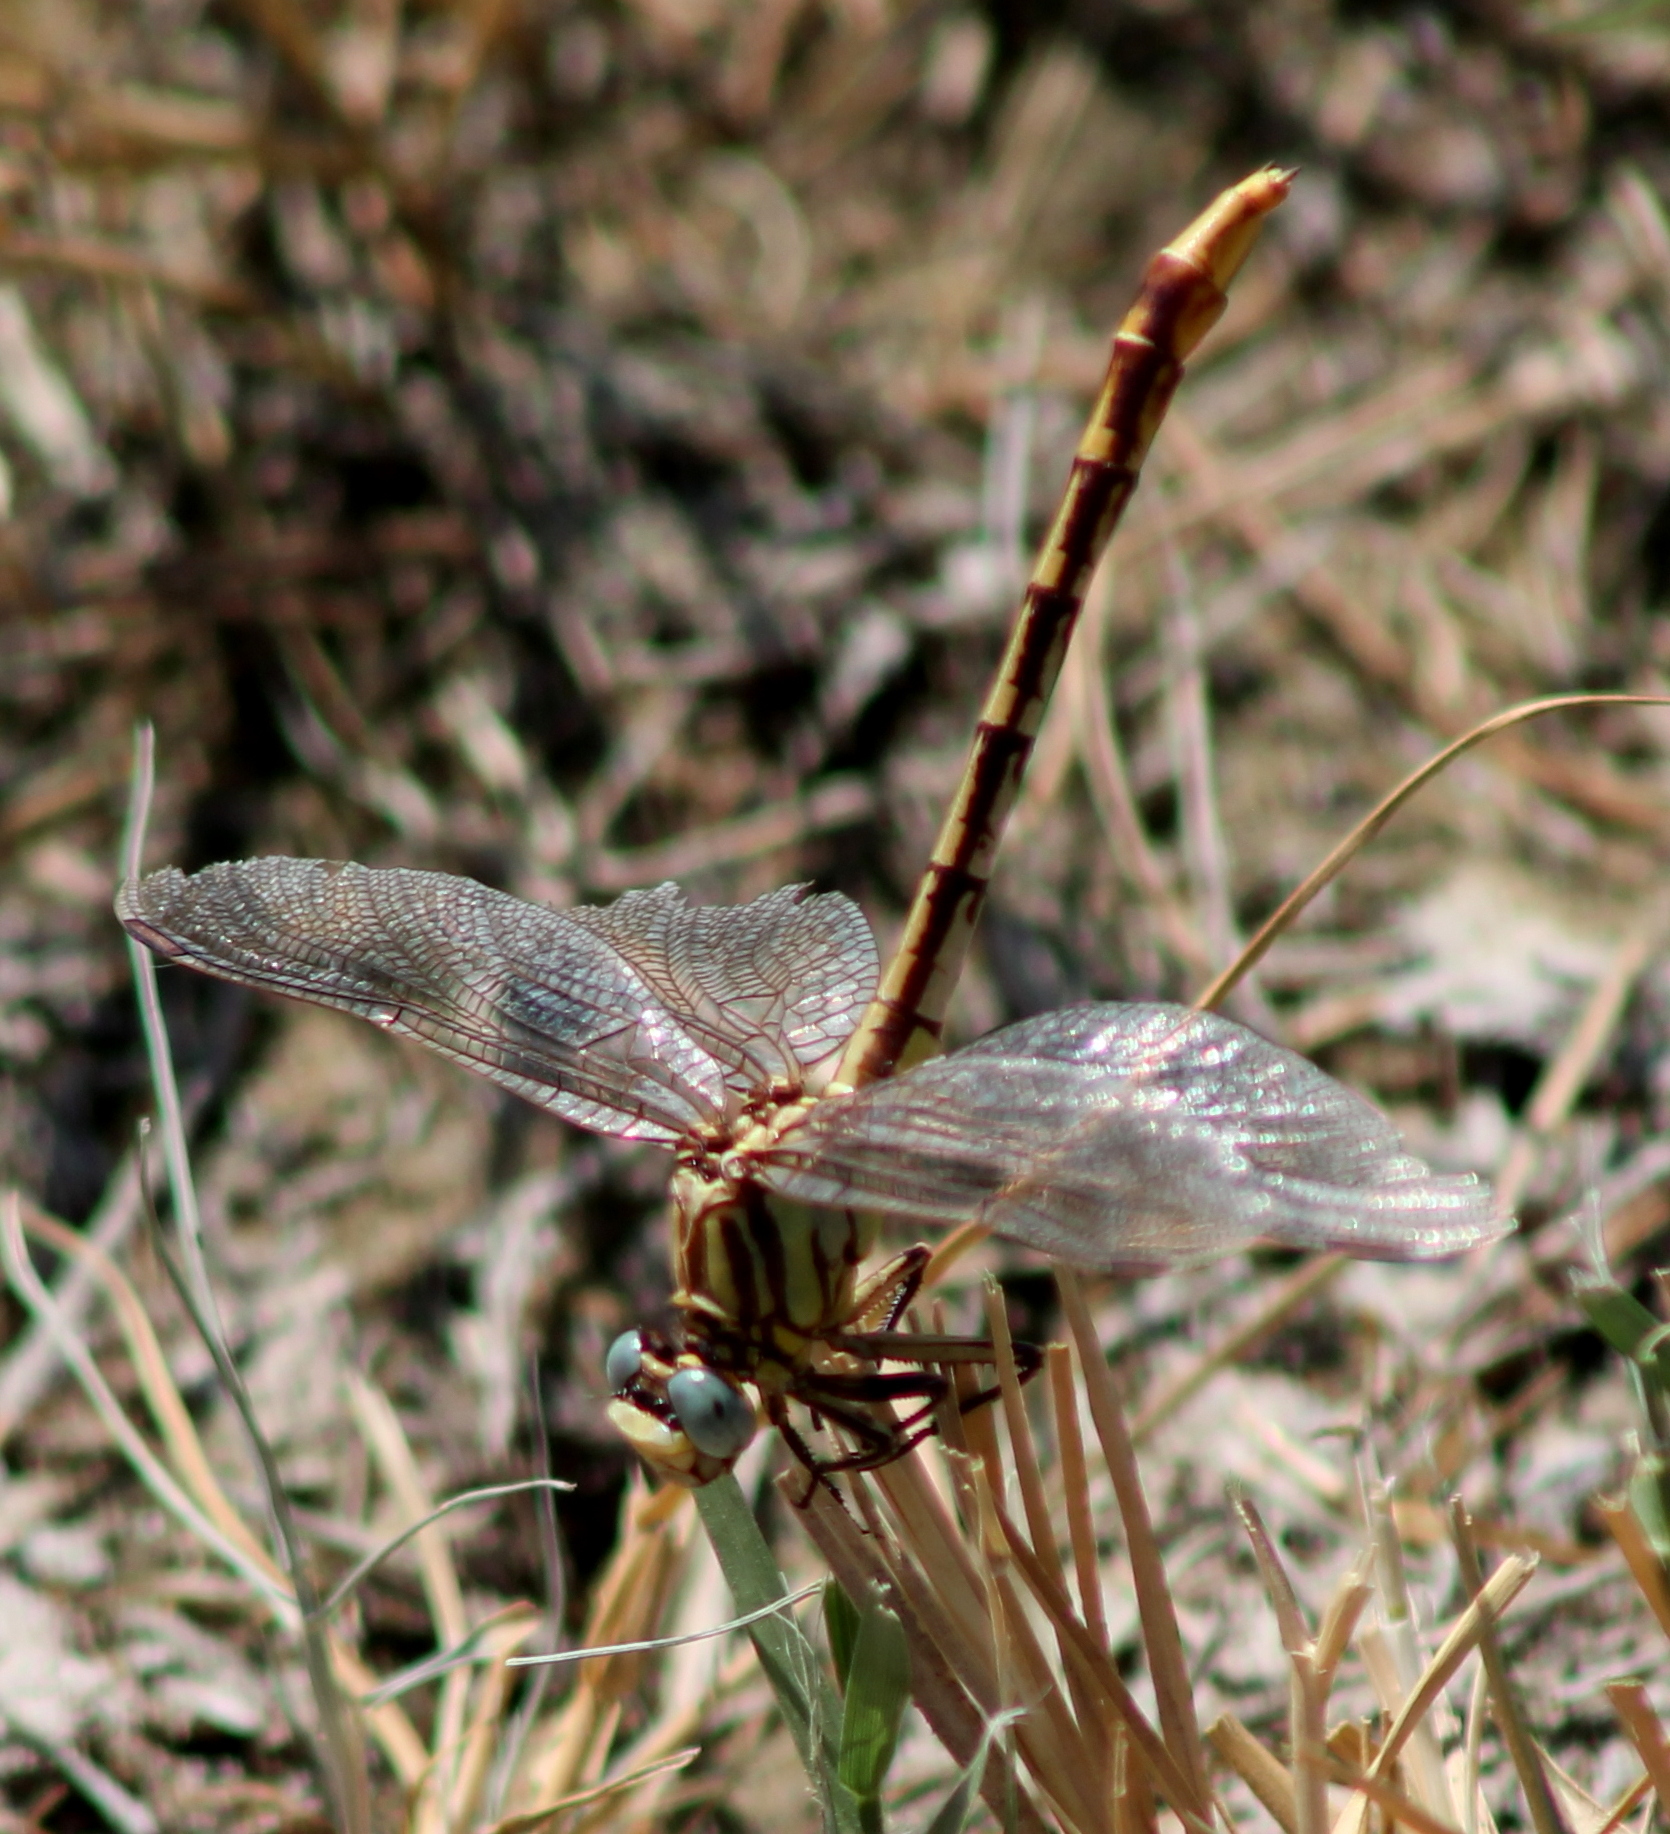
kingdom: Animalia
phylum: Arthropoda
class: Insecta
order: Odonata
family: Gomphidae
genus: Phanogomphus
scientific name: Phanogomphus militaris
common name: Sulphur-tipped clubtail
